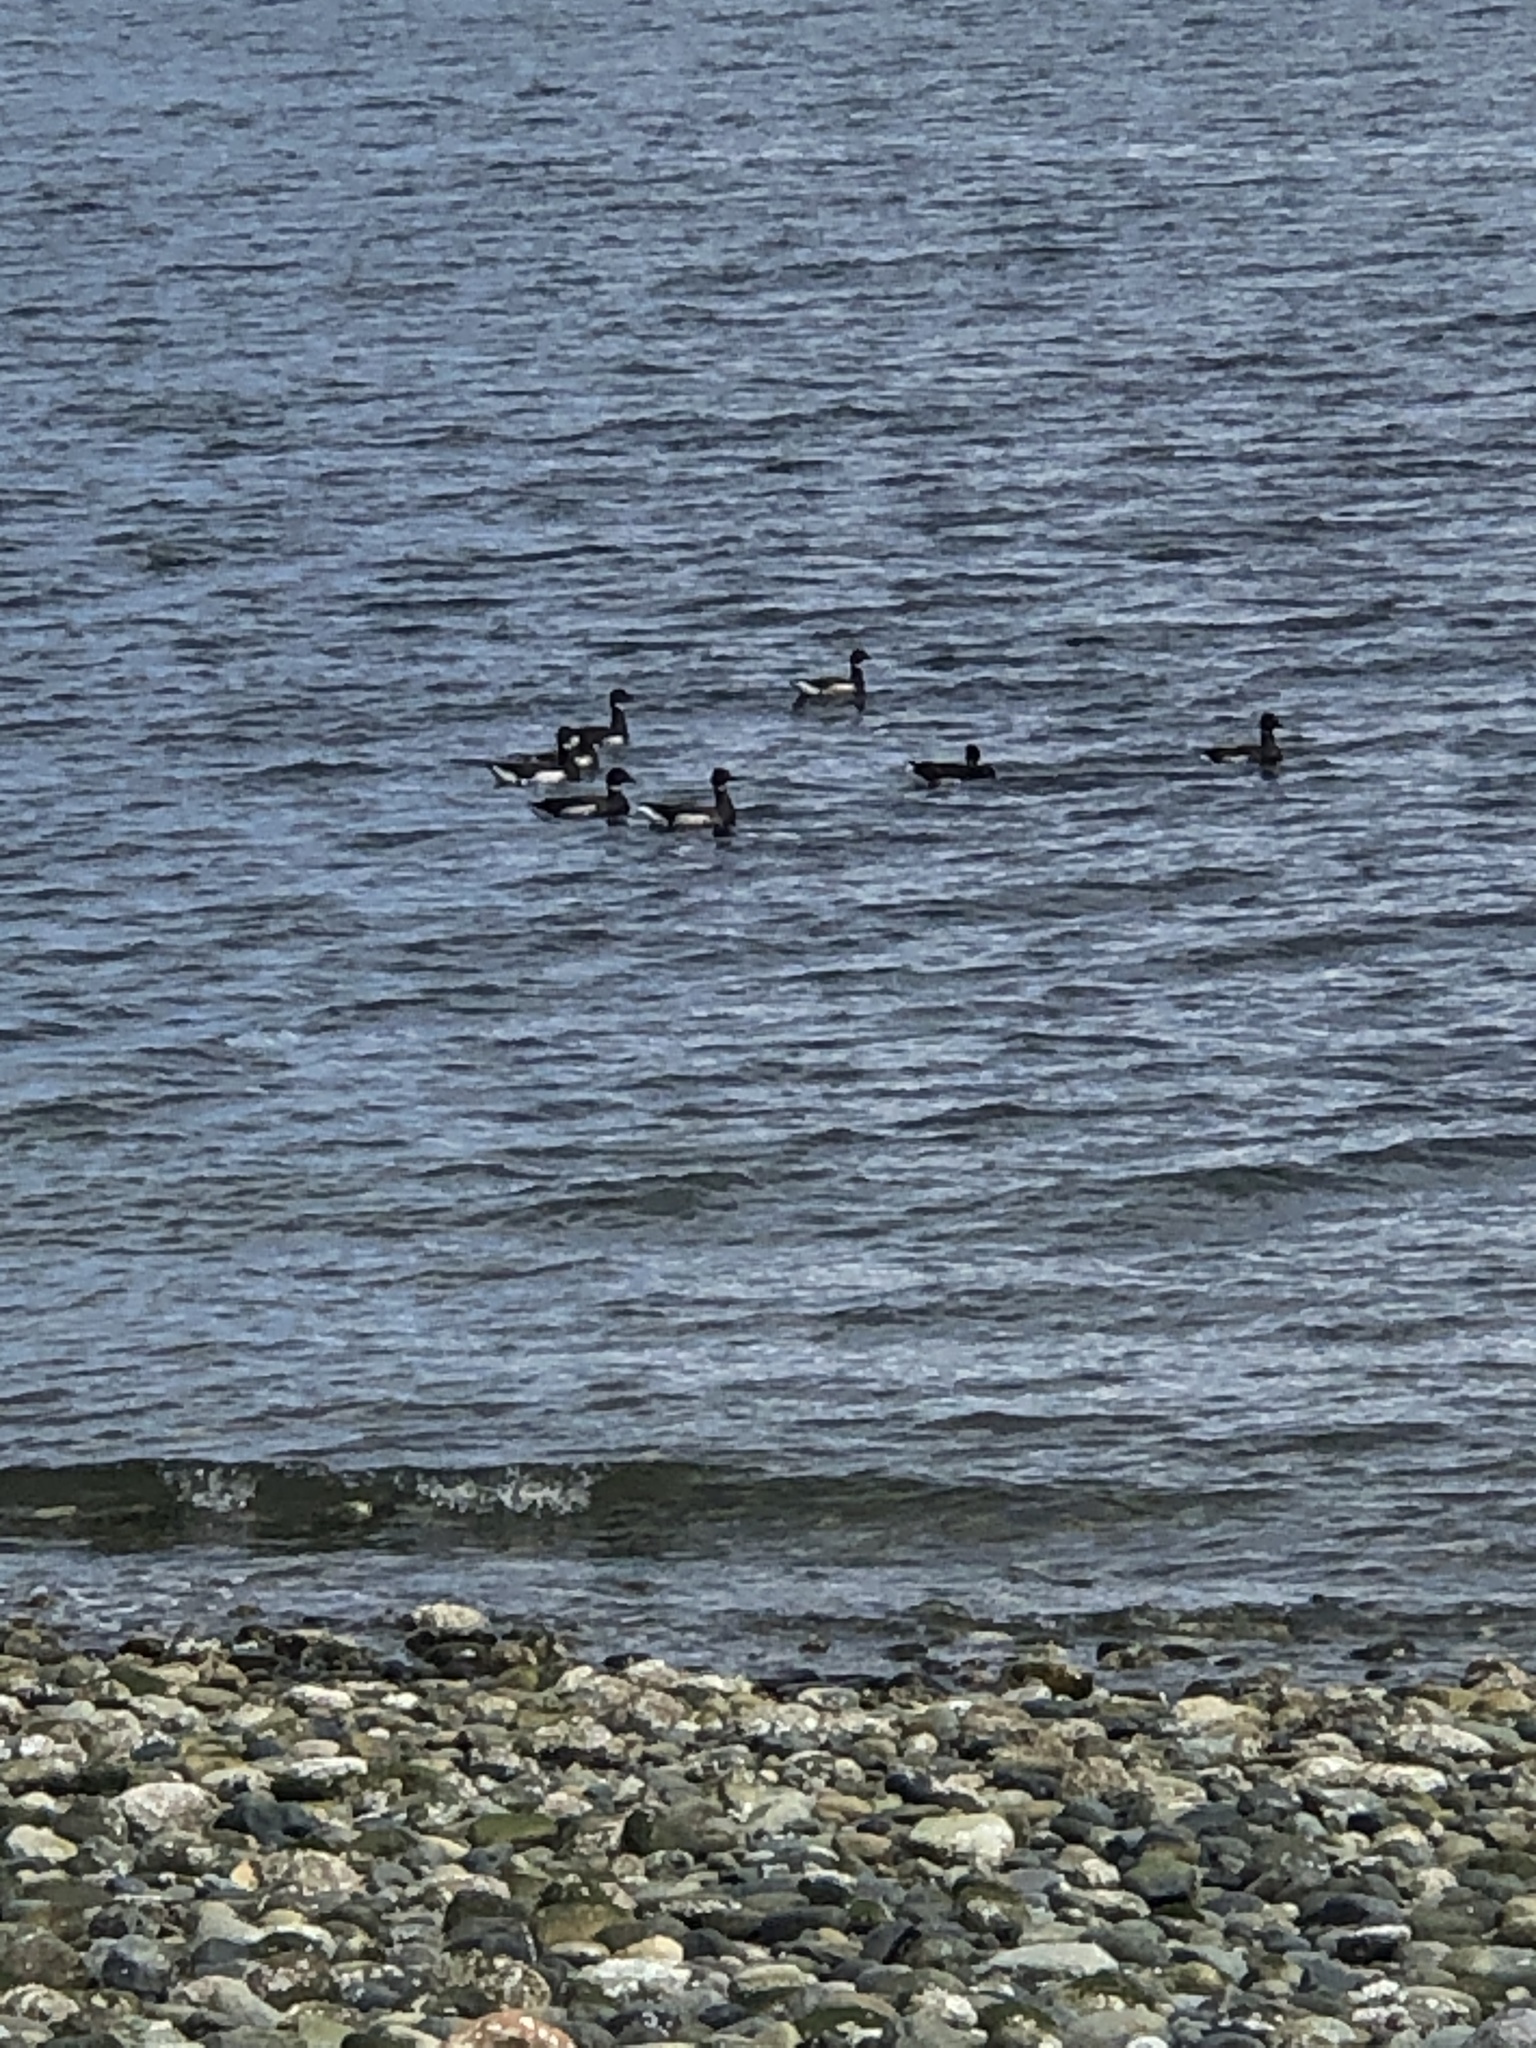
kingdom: Animalia
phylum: Chordata
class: Aves
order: Anseriformes
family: Anatidae
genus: Branta
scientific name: Branta bernicla
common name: Brant goose
